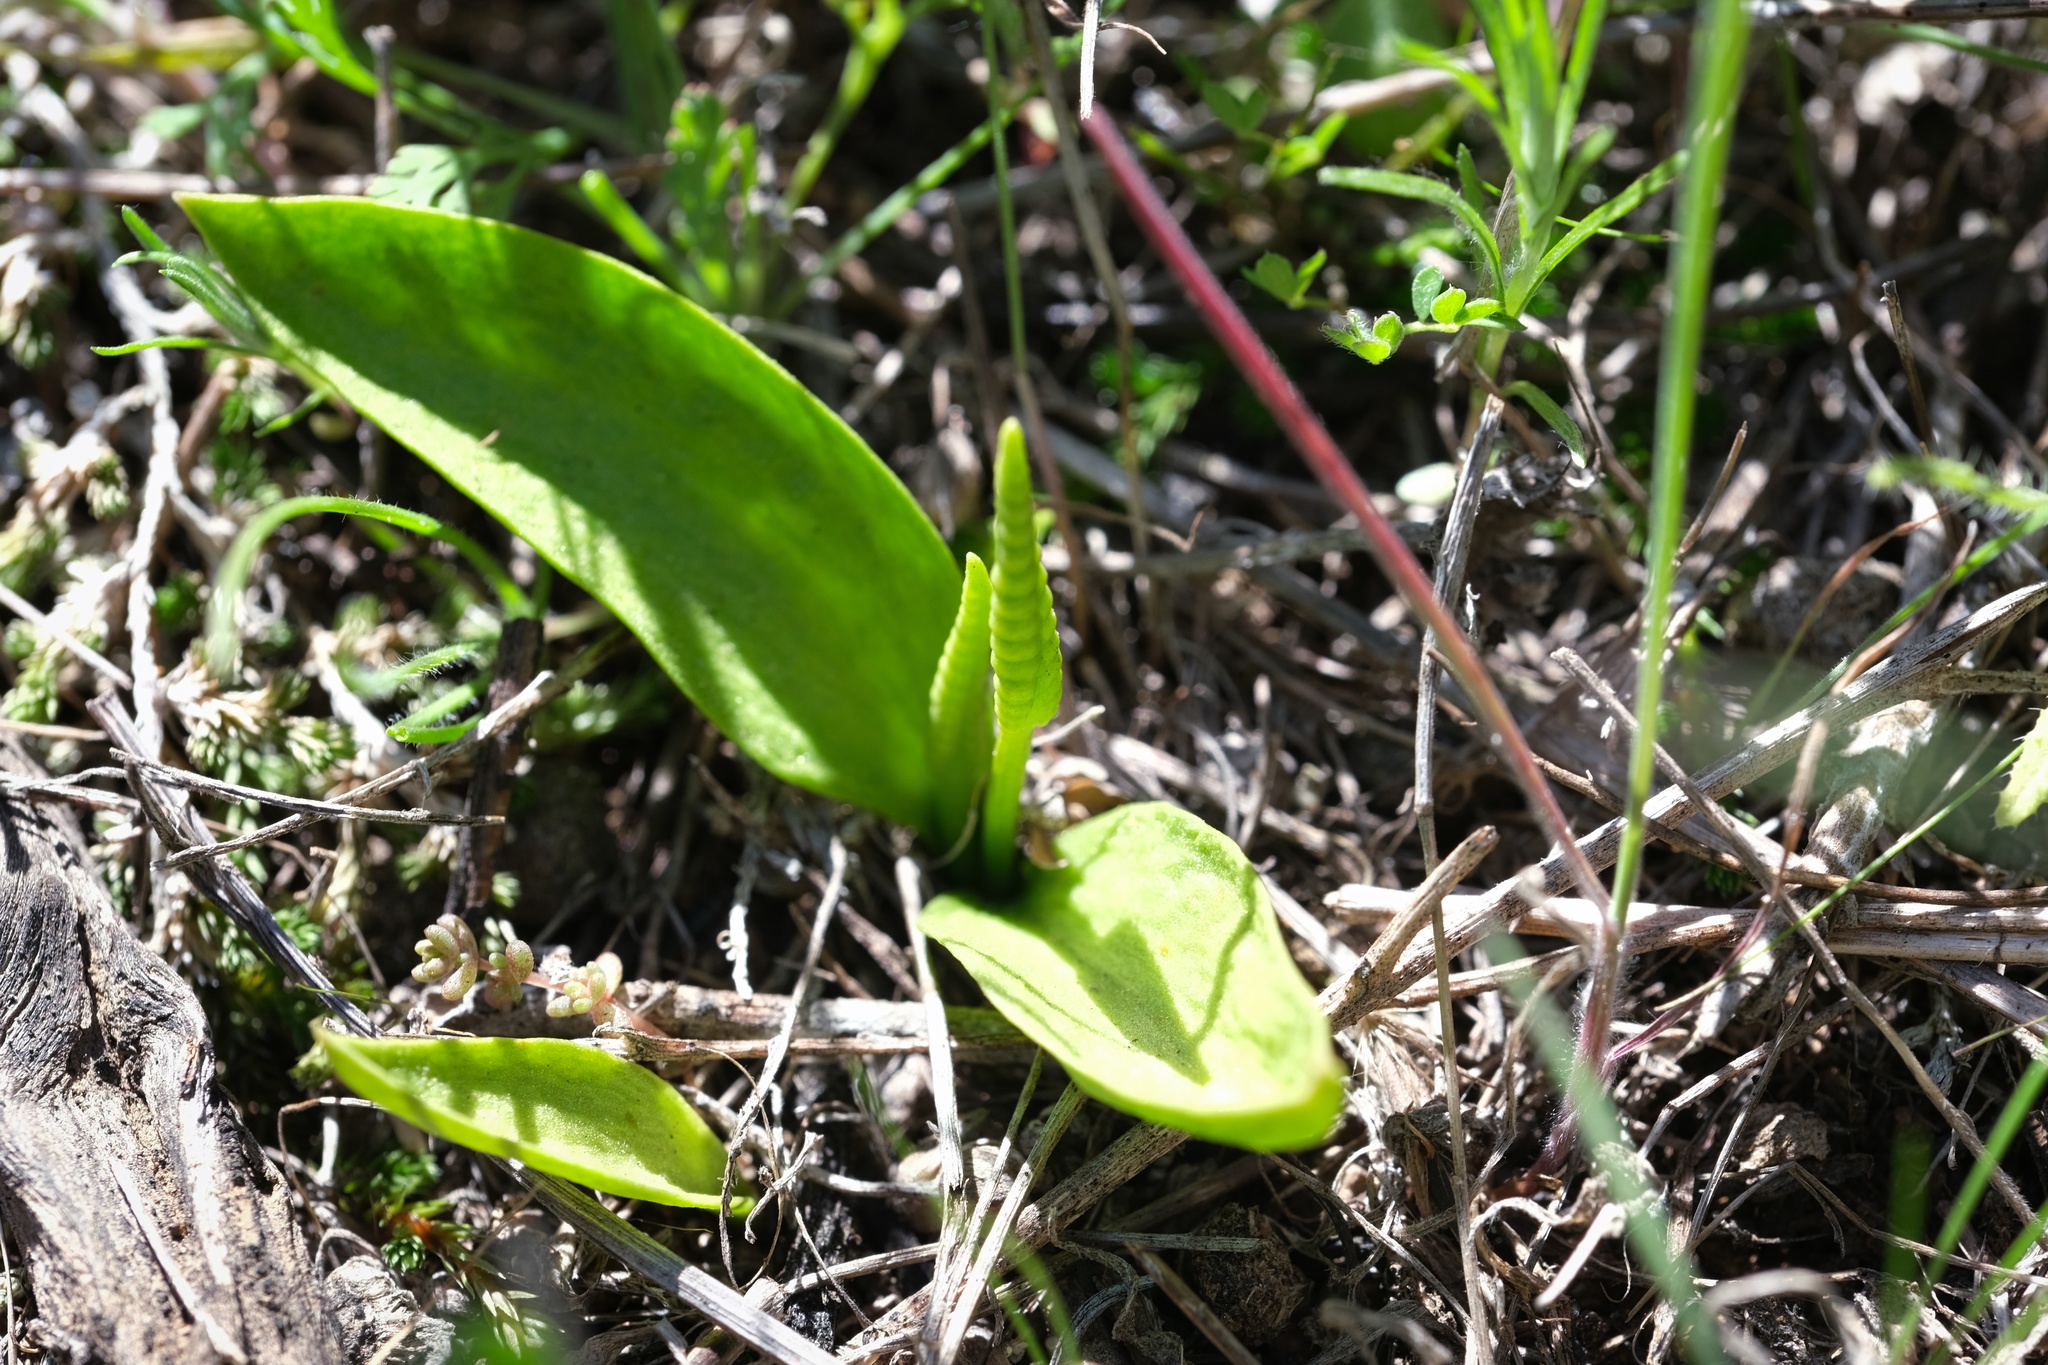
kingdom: Plantae
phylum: Tracheophyta
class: Polypodiopsida
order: Ophioglossales
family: Ophioglossaceae
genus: Ophioglossum
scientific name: Ophioglossum californicum
